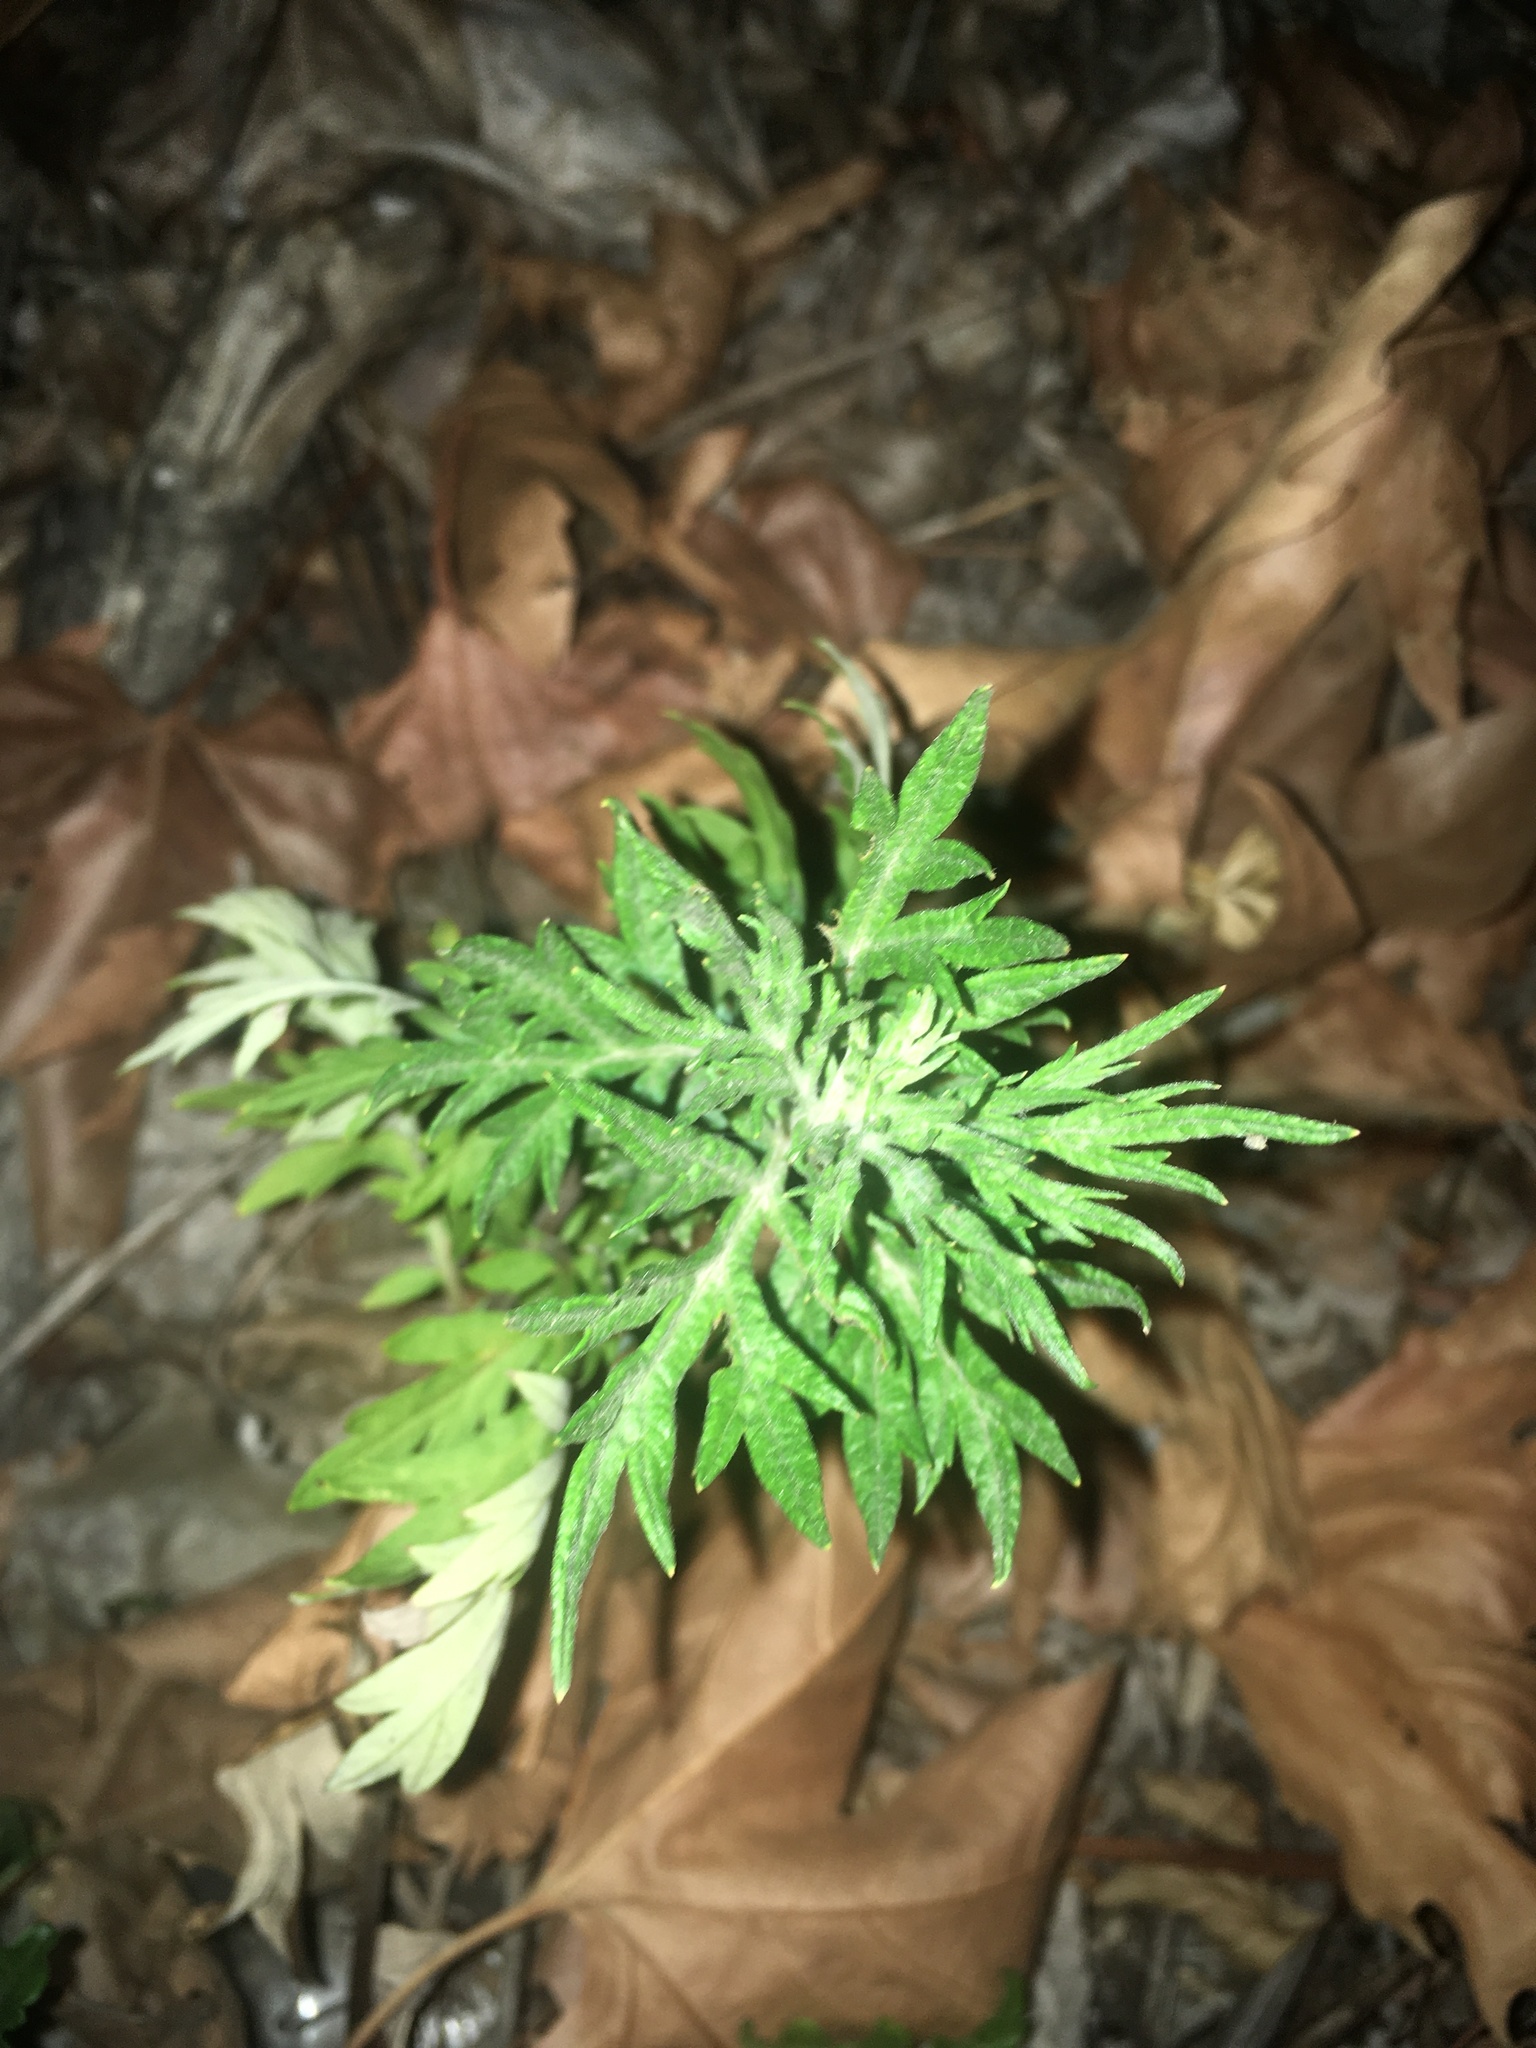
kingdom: Plantae
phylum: Tracheophyta
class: Magnoliopsida
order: Asterales
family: Asteraceae
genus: Artemisia
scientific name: Artemisia vulgaris
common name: Mugwort
